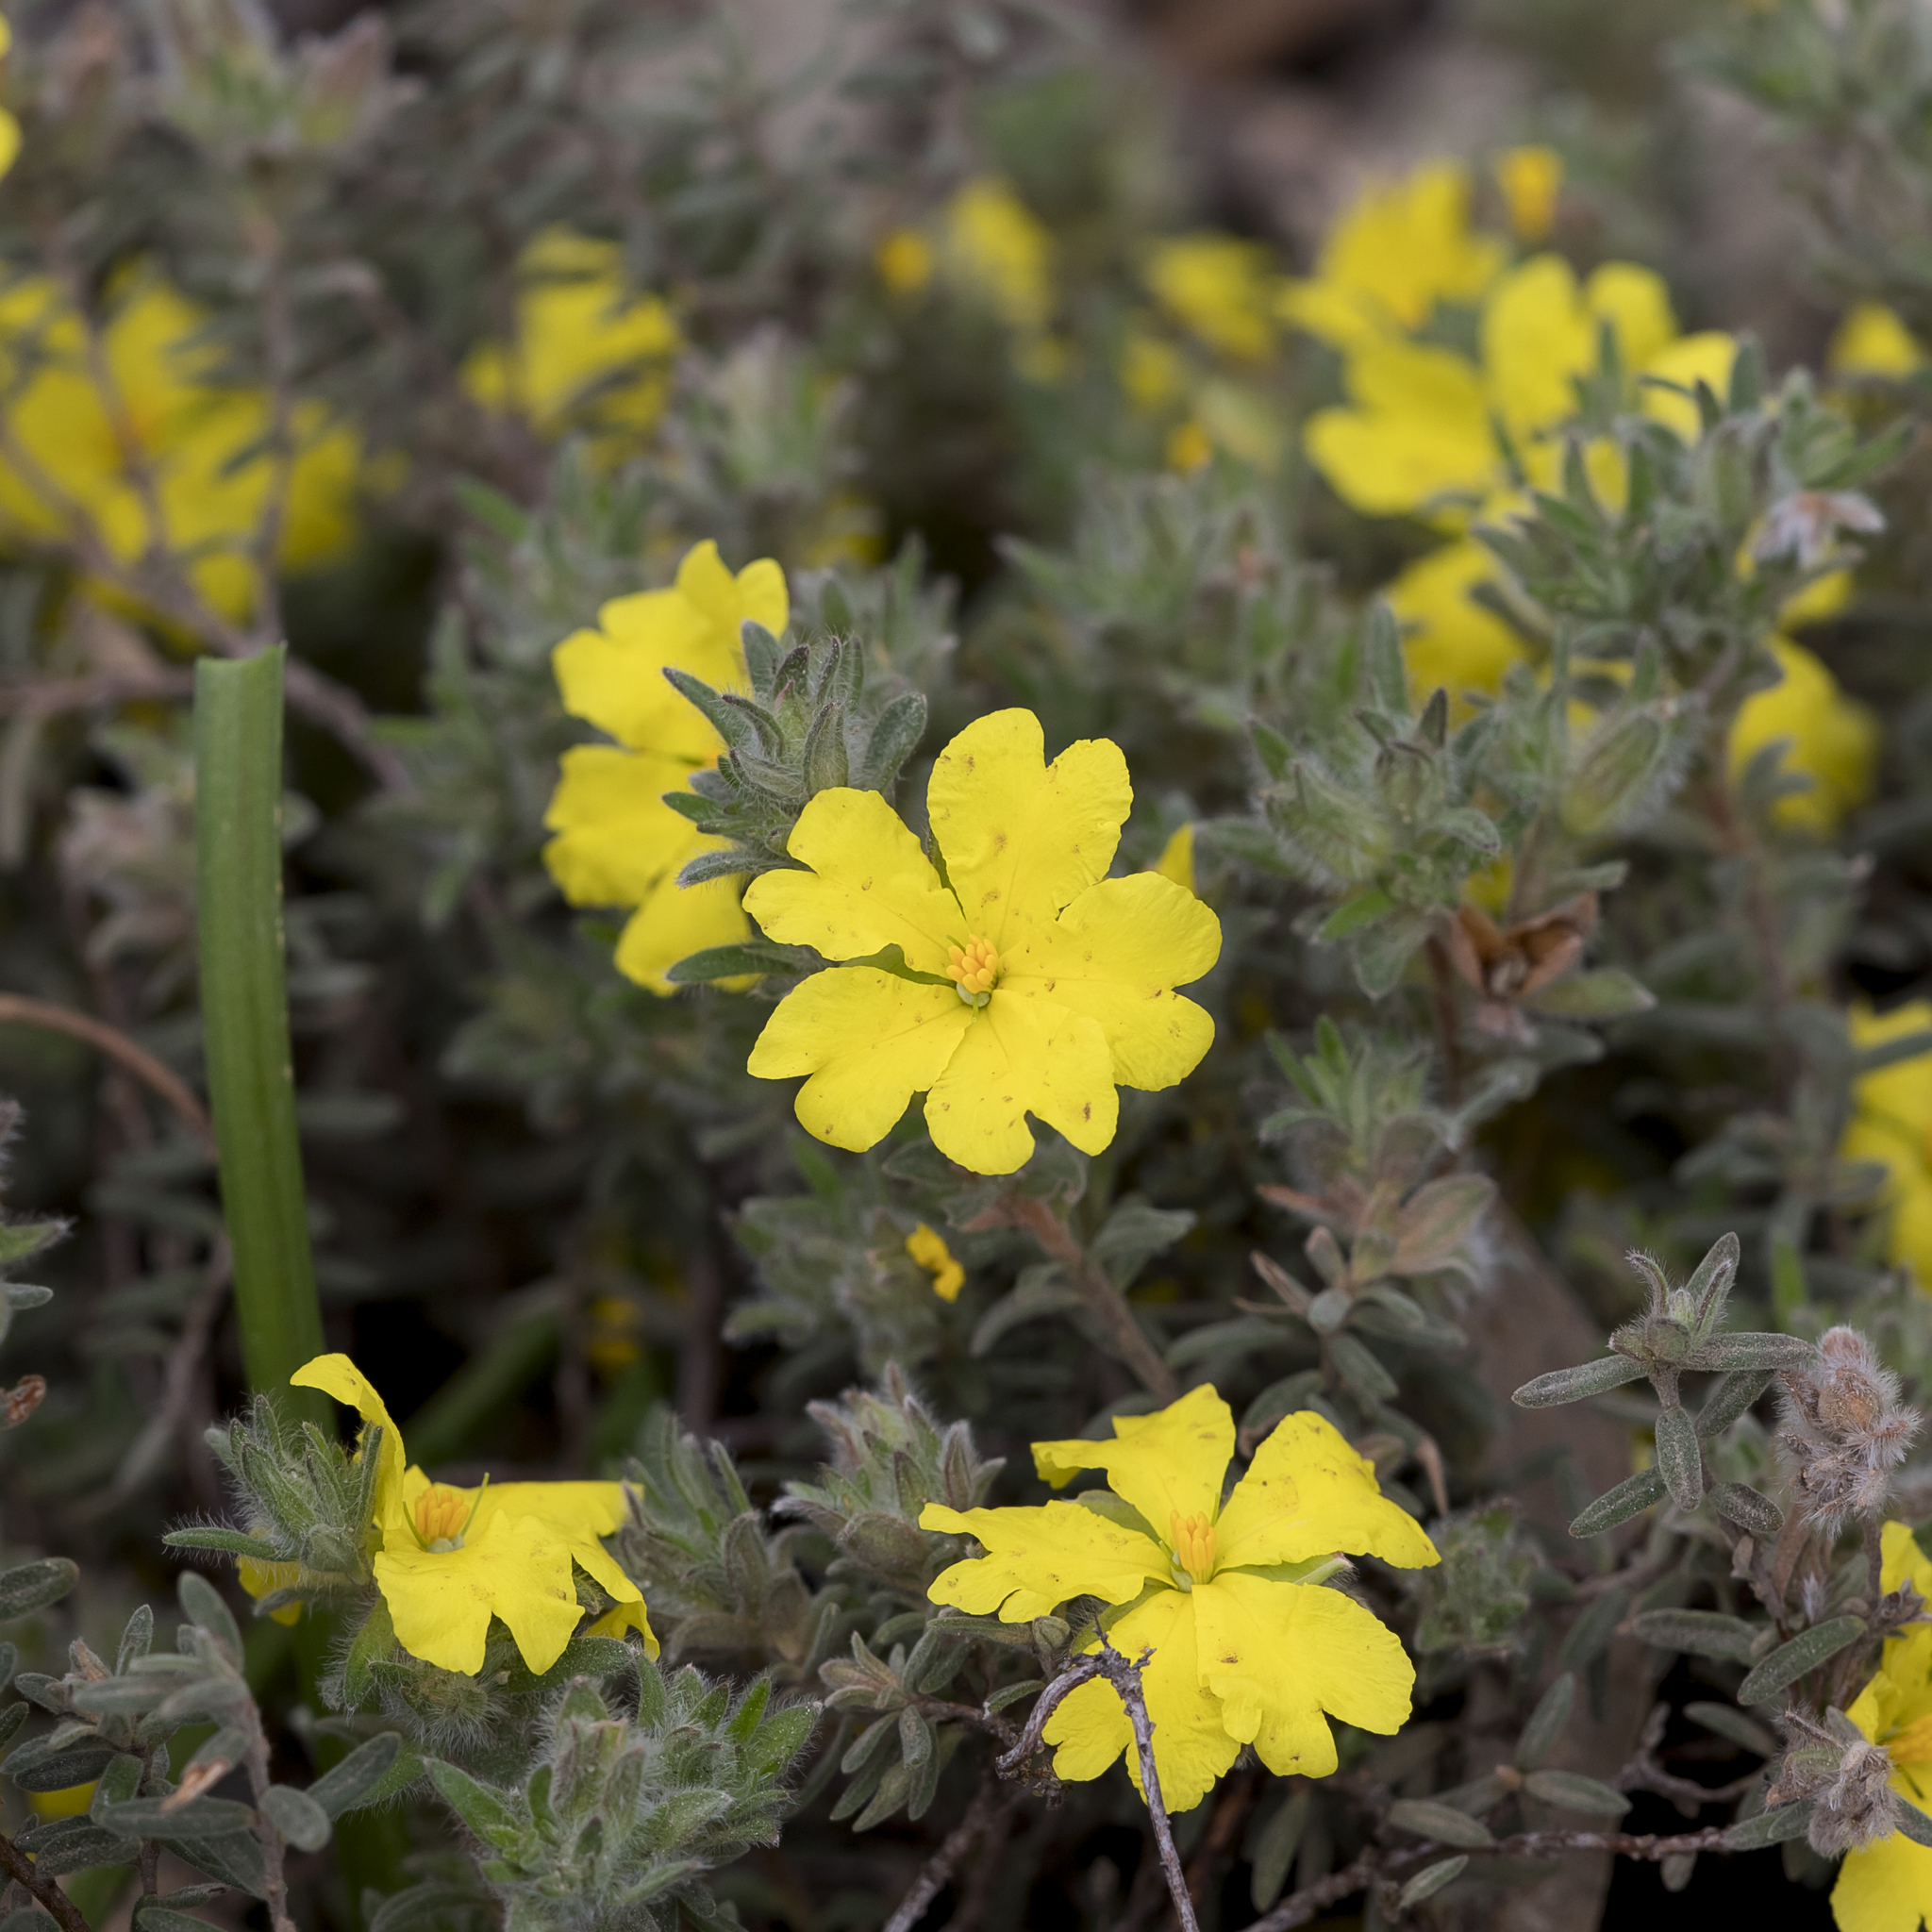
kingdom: Plantae
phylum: Tracheophyta
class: Magnoliopsida
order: Dilleniales
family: Dilleniaceae
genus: Hibbertia
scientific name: Hibbertia crinita
